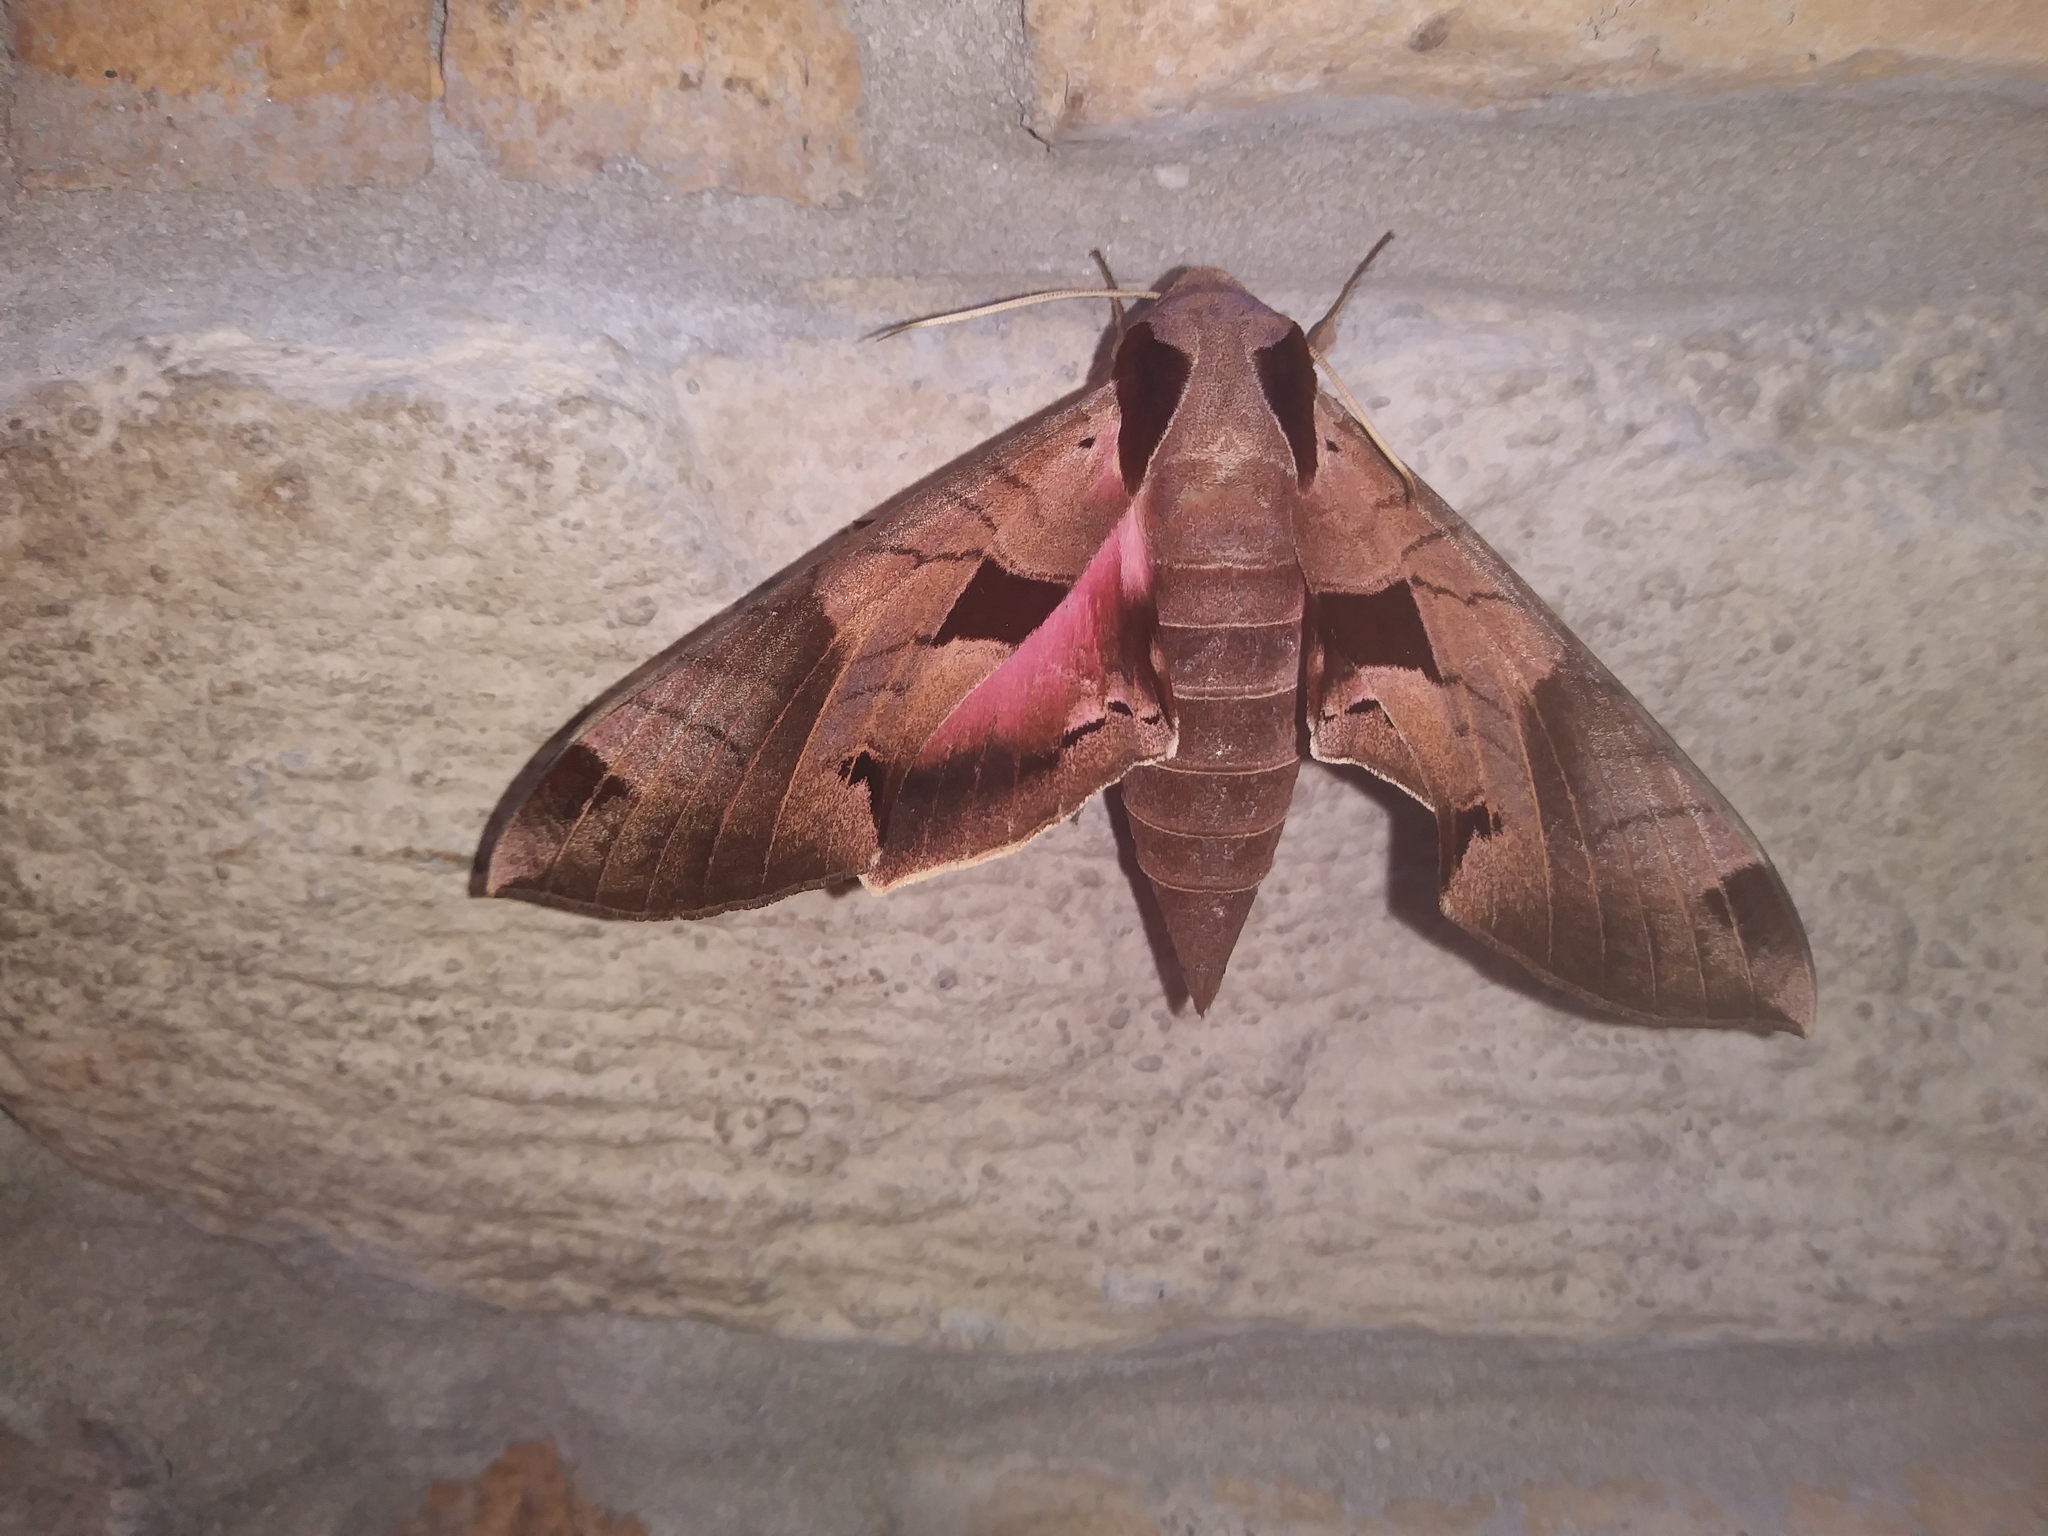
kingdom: Animalia
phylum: Arthropoda
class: Insecta
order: Lepidoptera
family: Sphingidae
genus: Eumorpha
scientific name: Eumorpha achemon
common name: Achemon sphinx
